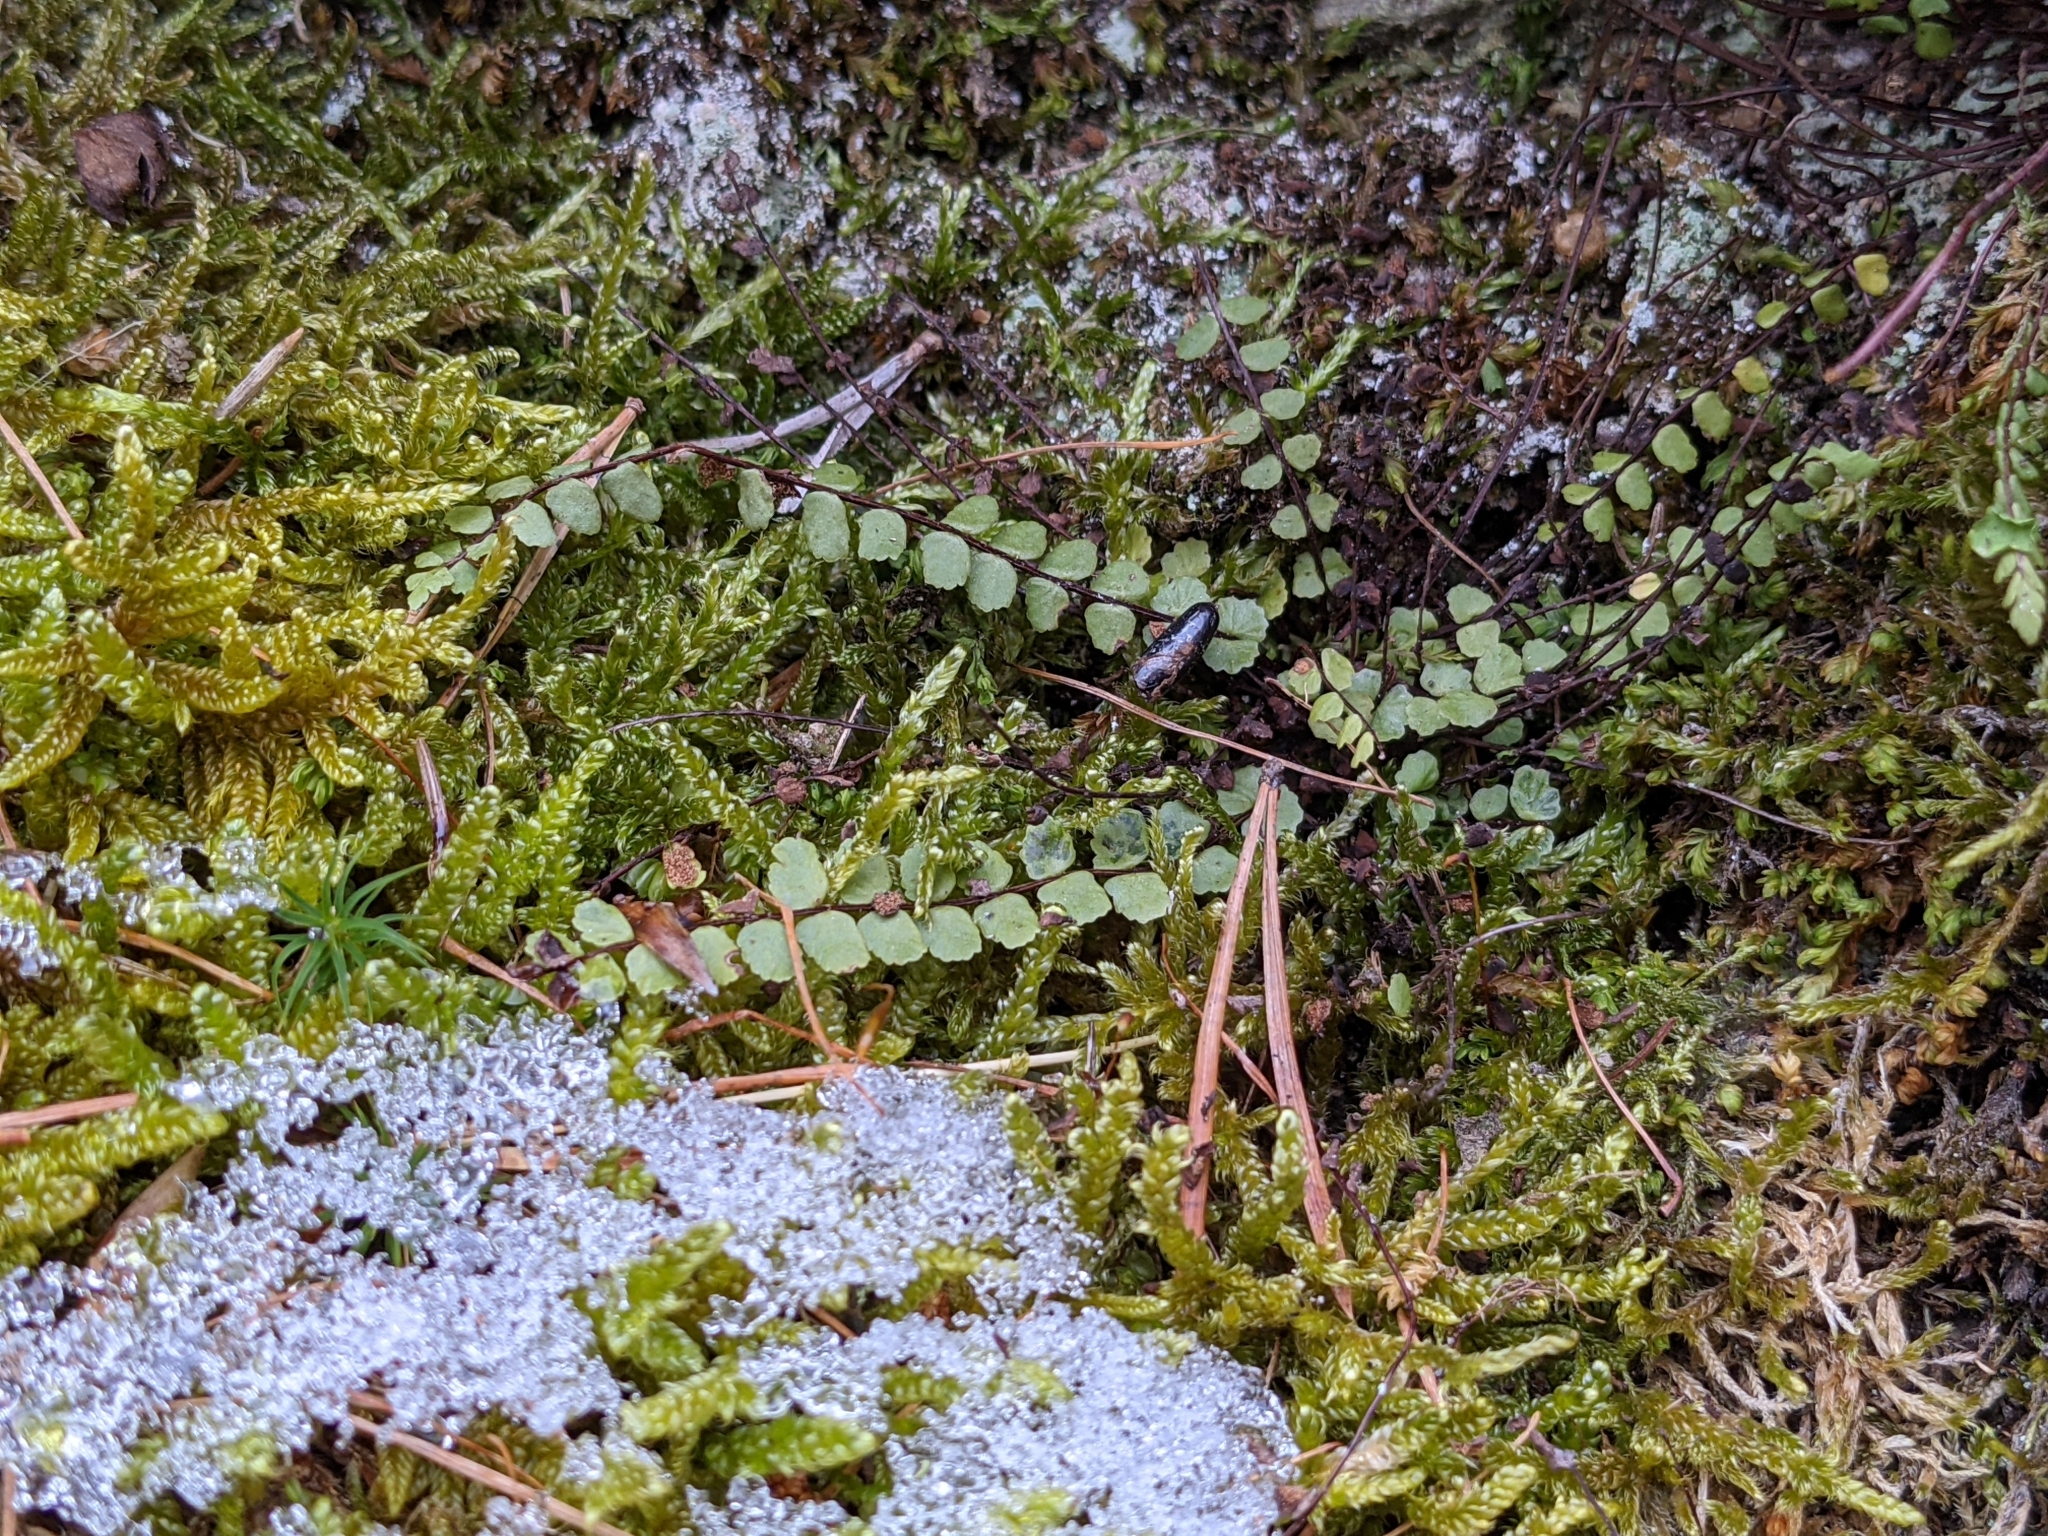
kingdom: Plantae
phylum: Tracheophyta
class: Polypodiopsida
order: Polypodiales
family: Aspleniaceae
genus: Asplenium
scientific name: Asplenium trichomanes
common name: Maidenhair spleenwort
